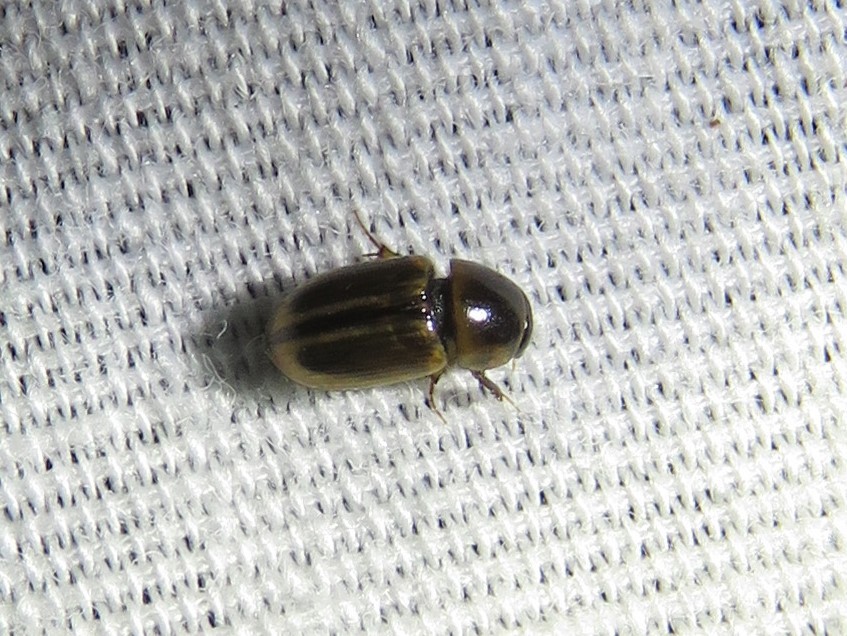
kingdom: Animalia
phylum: Arthropoda
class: Insecta
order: Coleoptera
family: Scarabaeidae
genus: Labarrus
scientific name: Labarrus lividus
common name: Scarab beetle
